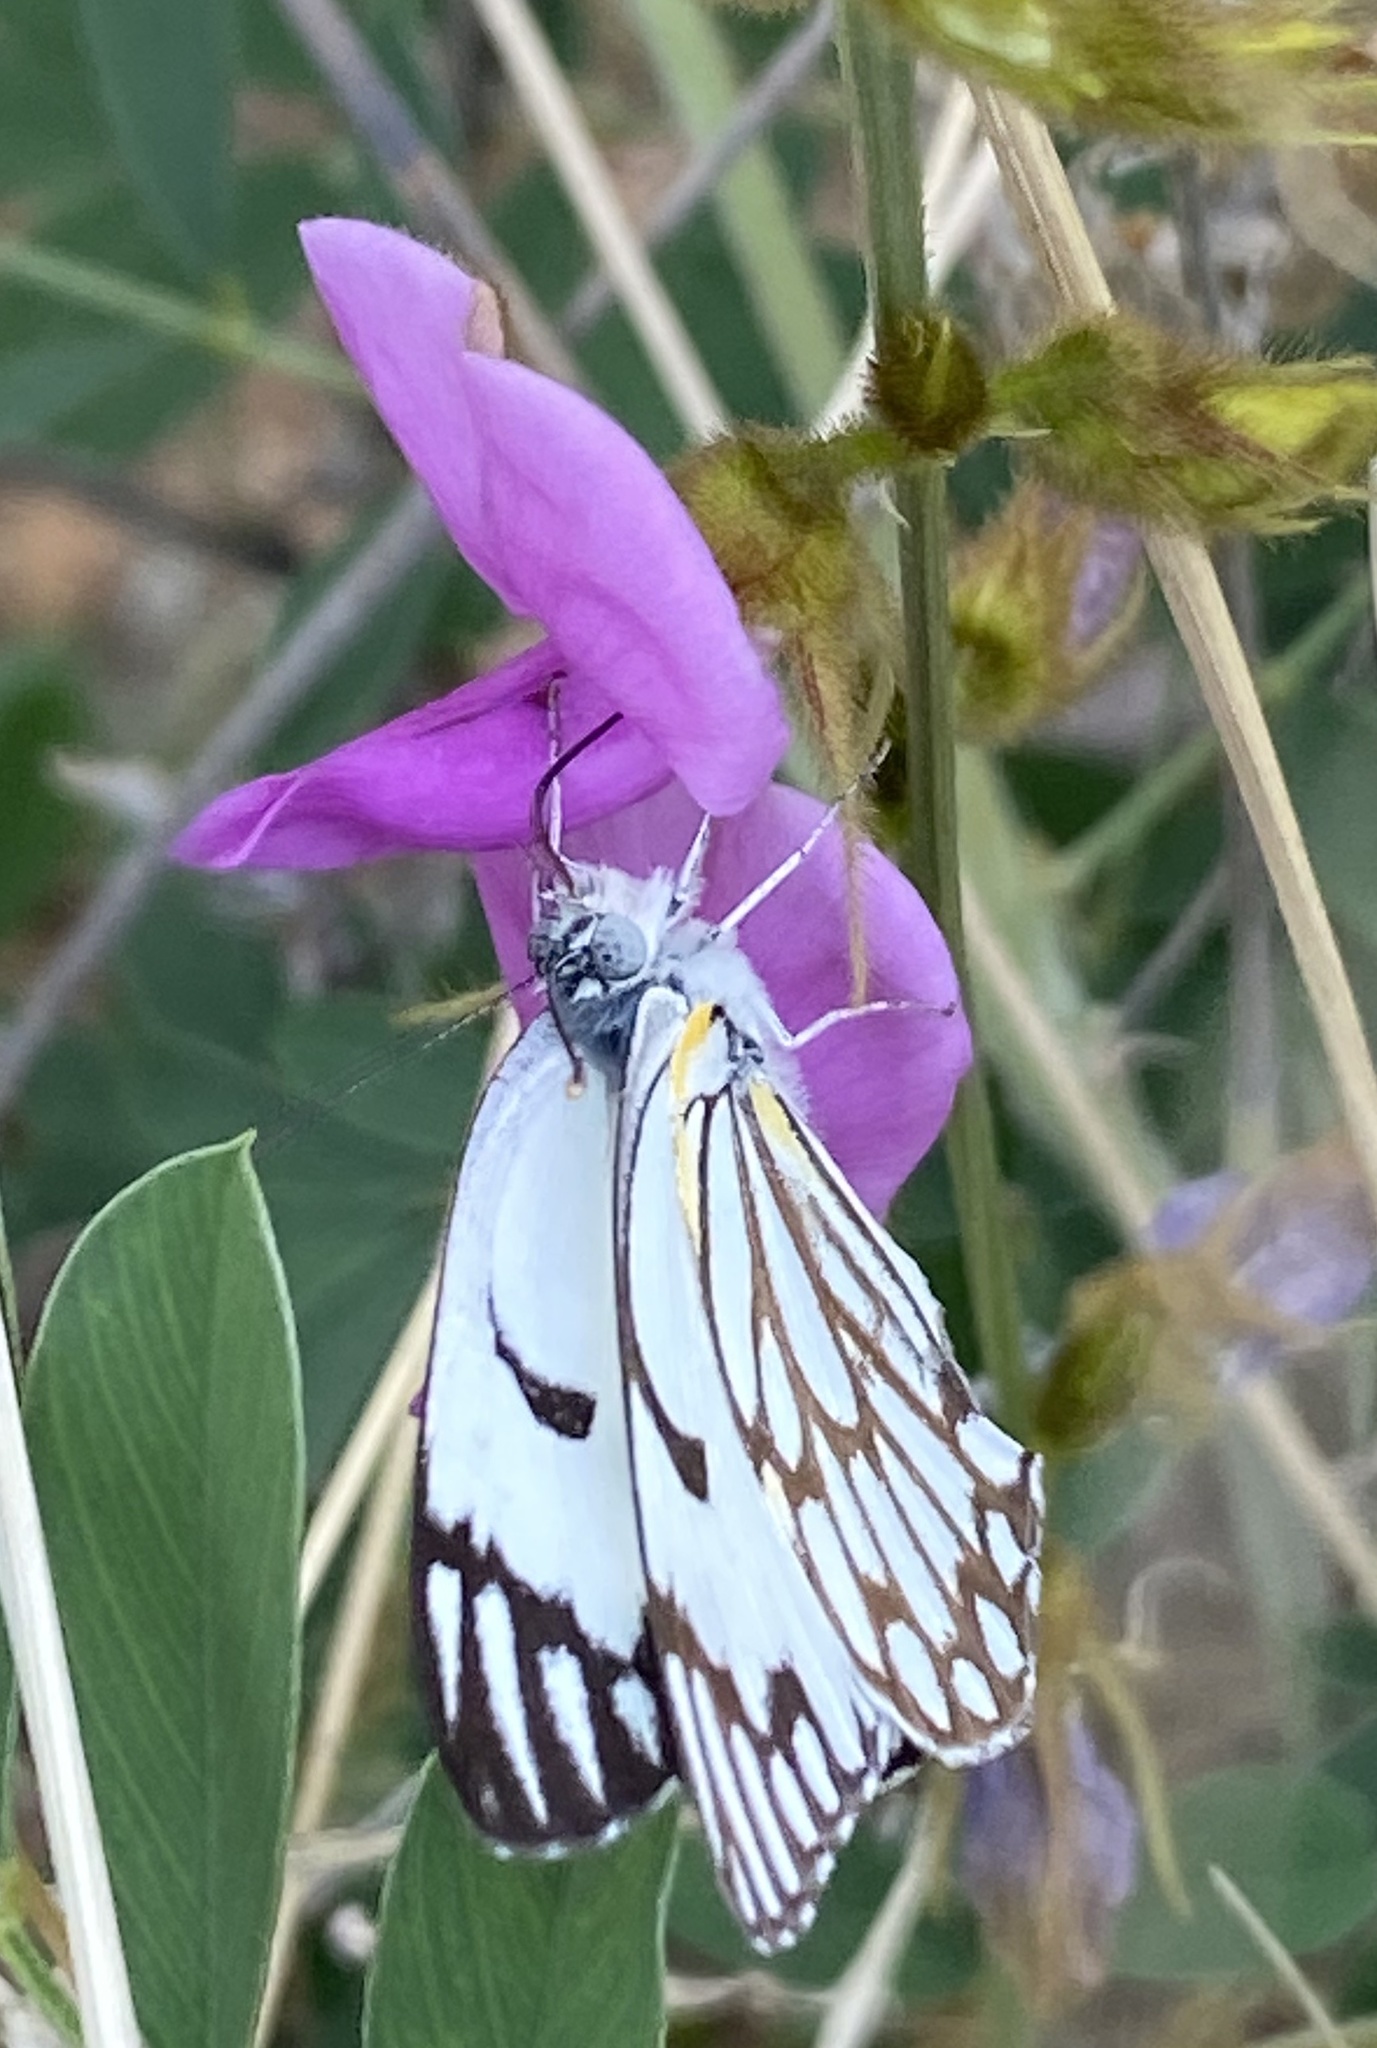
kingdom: Animalia
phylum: Arthropoda
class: Insecta
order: Lepidoptera
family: Pieridae
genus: Belenois
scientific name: Belenois aurota
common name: Brown-veined white
